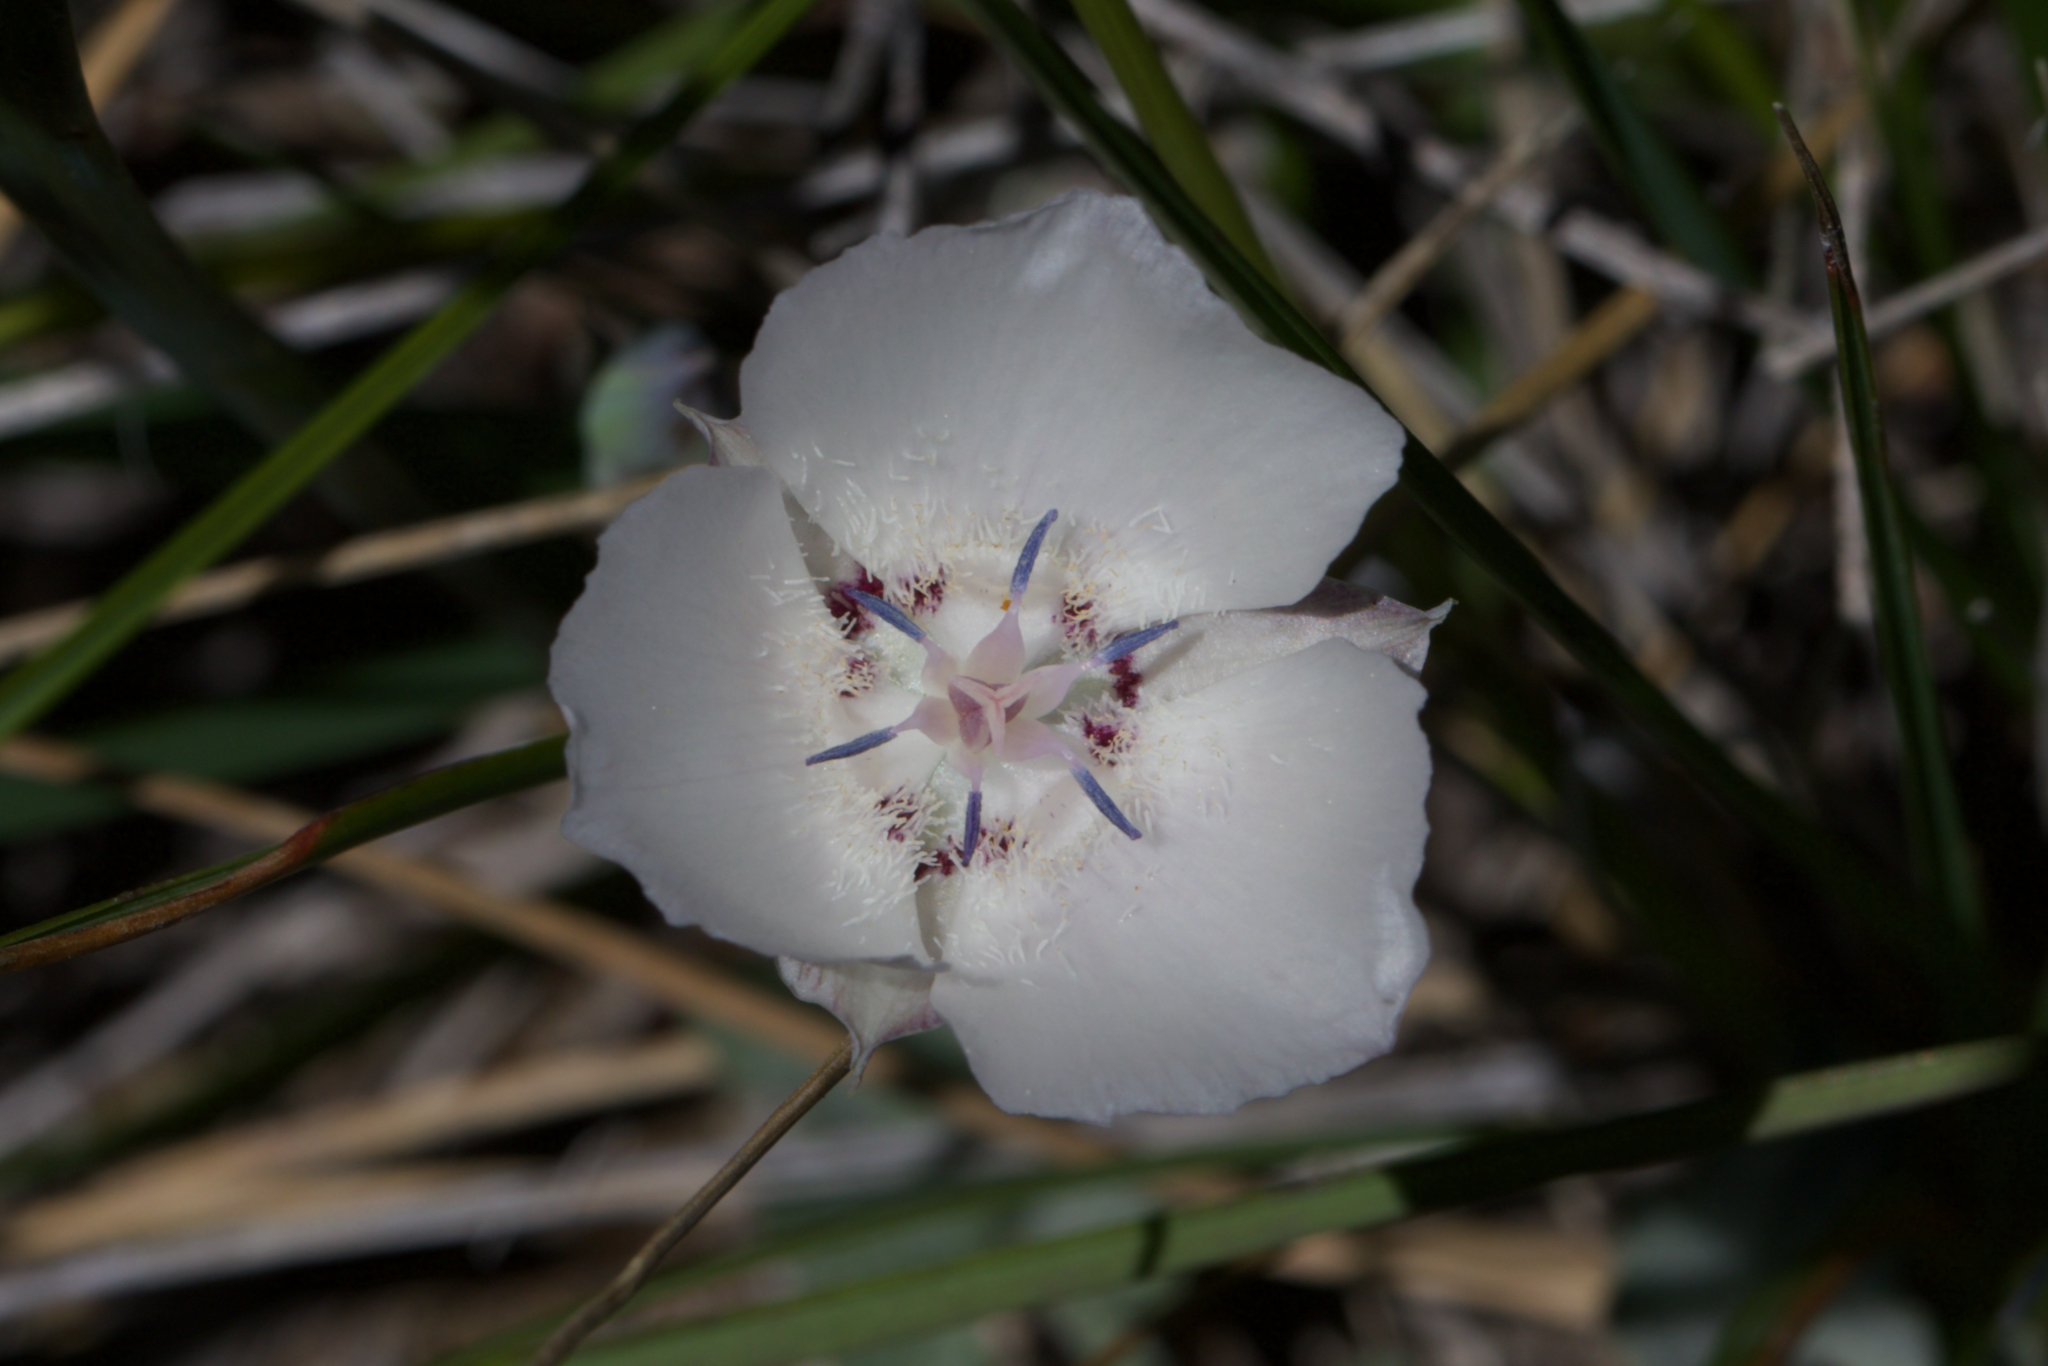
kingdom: Plantae
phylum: Tracheophyta
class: Liliopsida
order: Liliales
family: Liliaceae
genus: Calochortus
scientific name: Calochortus umbellatus
